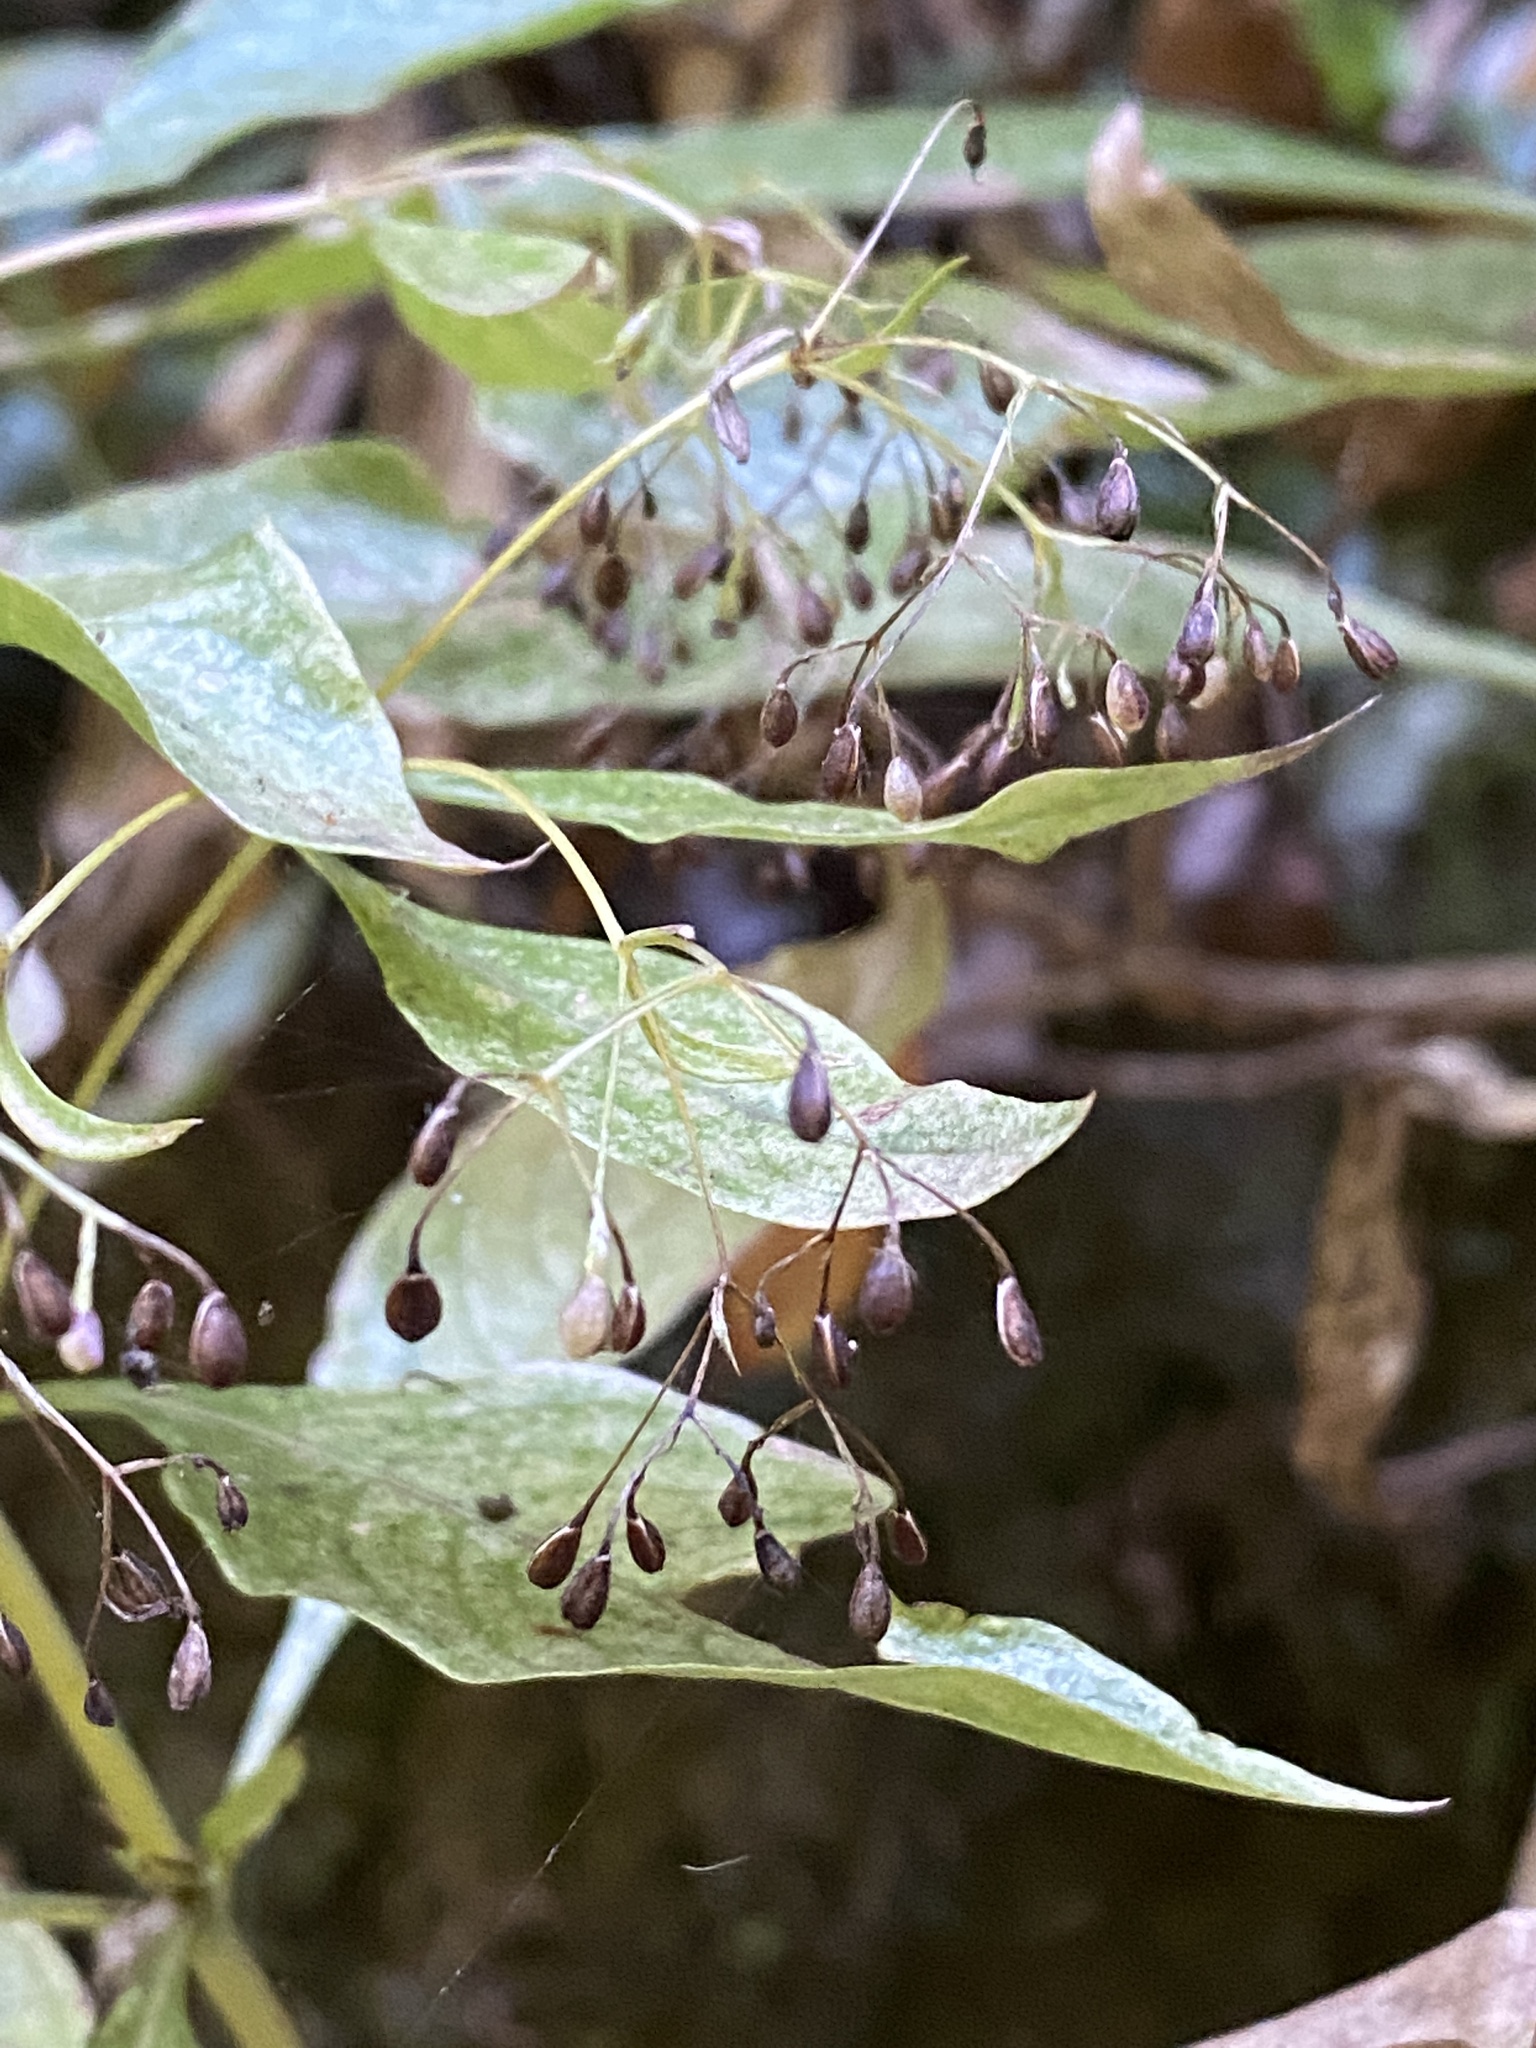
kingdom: Plantae
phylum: Tracheophyta
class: Magnoliopsida
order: Gentianales
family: Rubiaceae
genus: Phyllis
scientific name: Phyllis nobla
